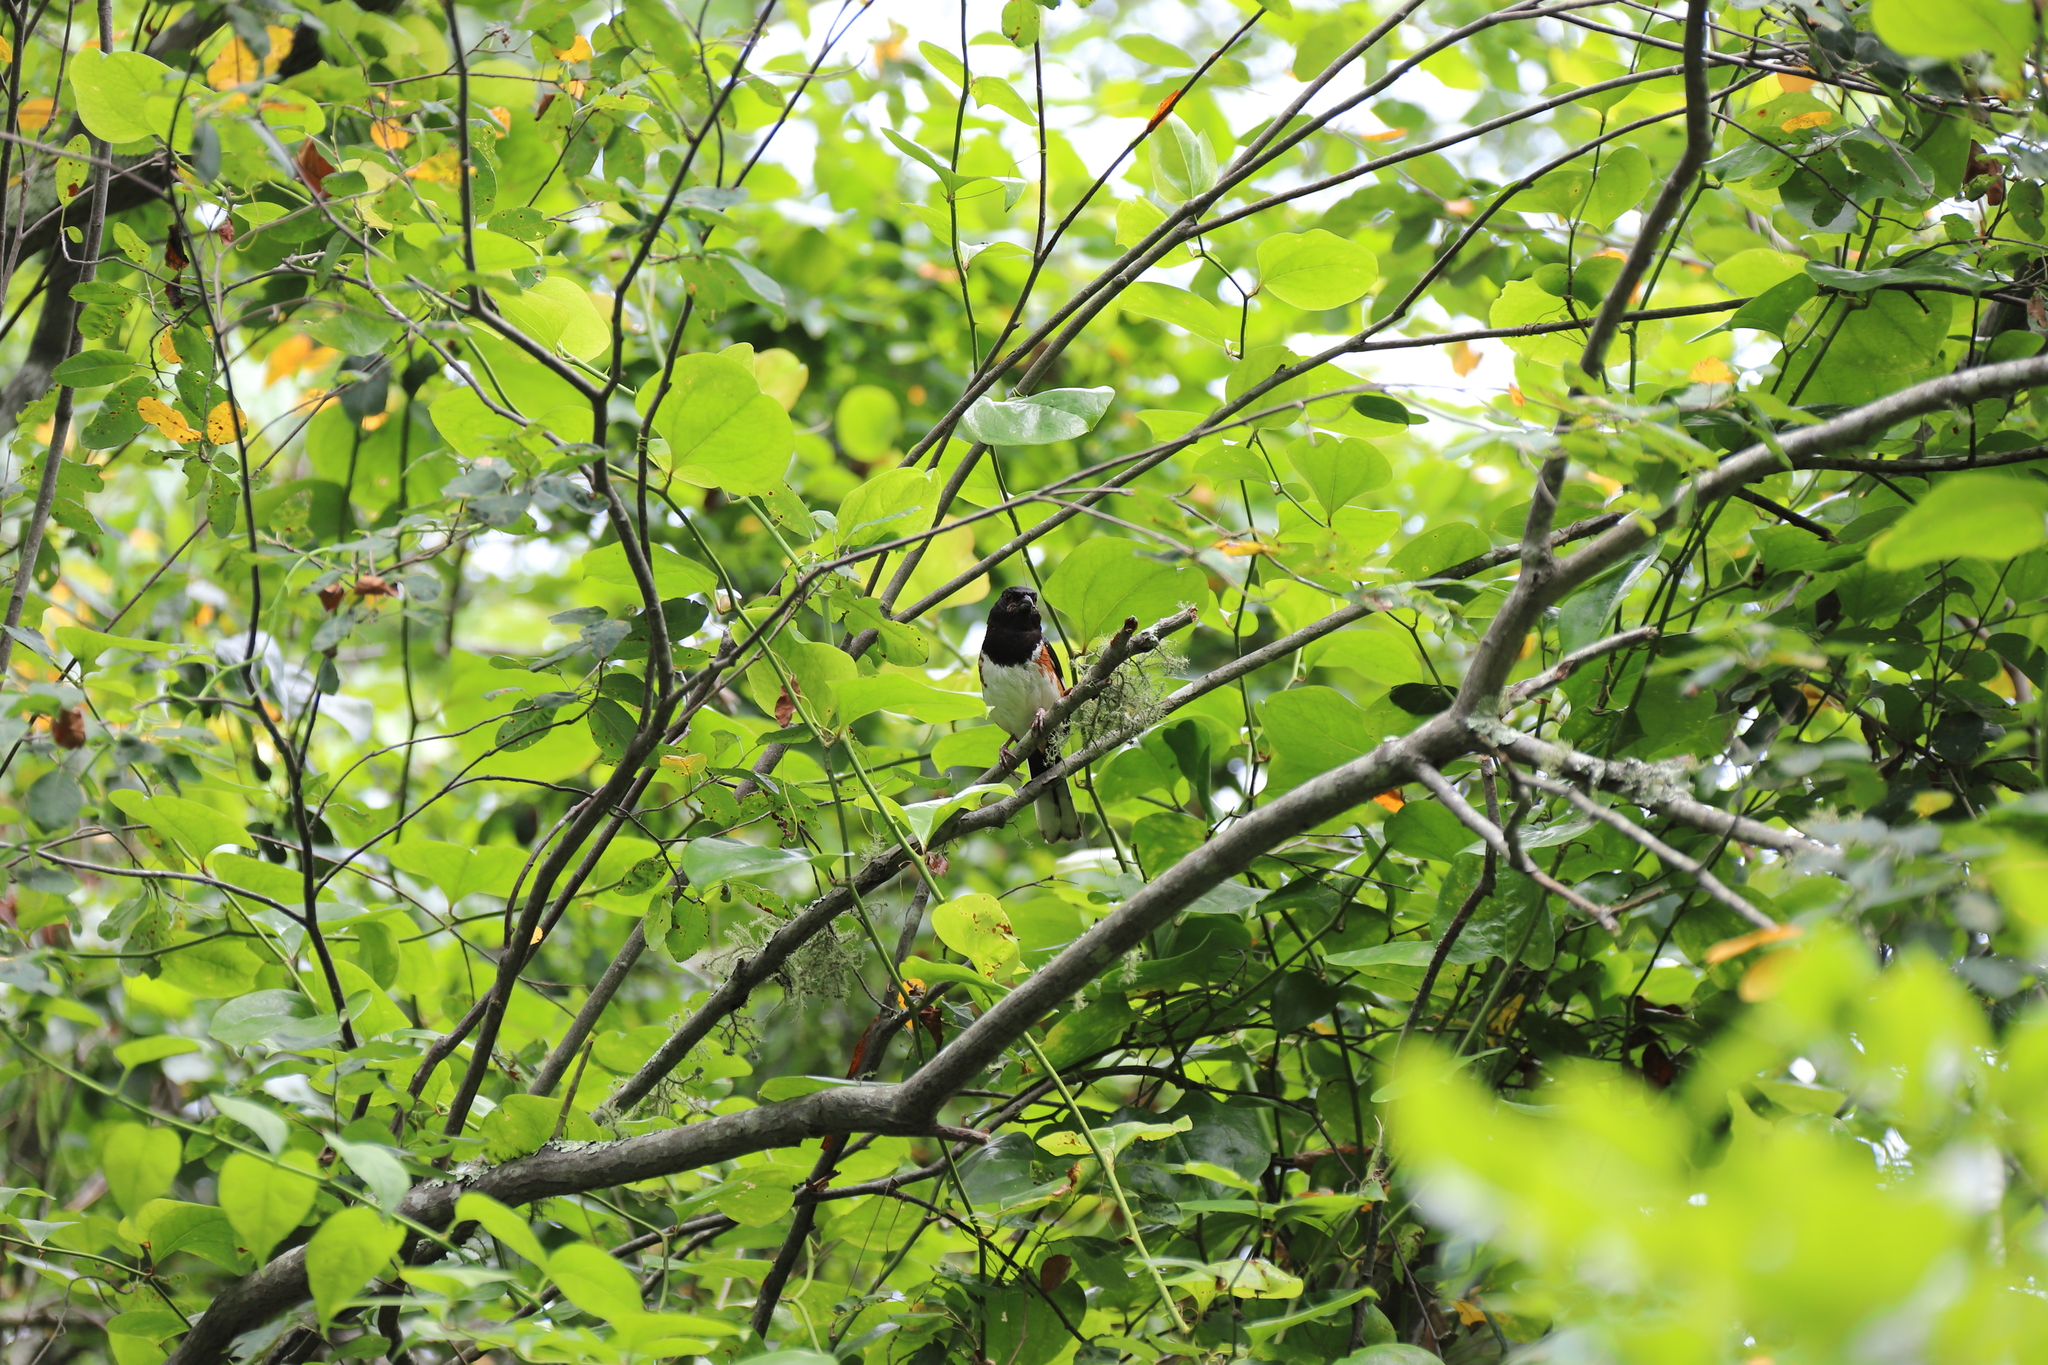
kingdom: Animalia
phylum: Chordata
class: Aves
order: Passeriformes
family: Passerellidae
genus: Pipilo
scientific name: Pipilo erythrophthalmus
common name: Eastern towhee
